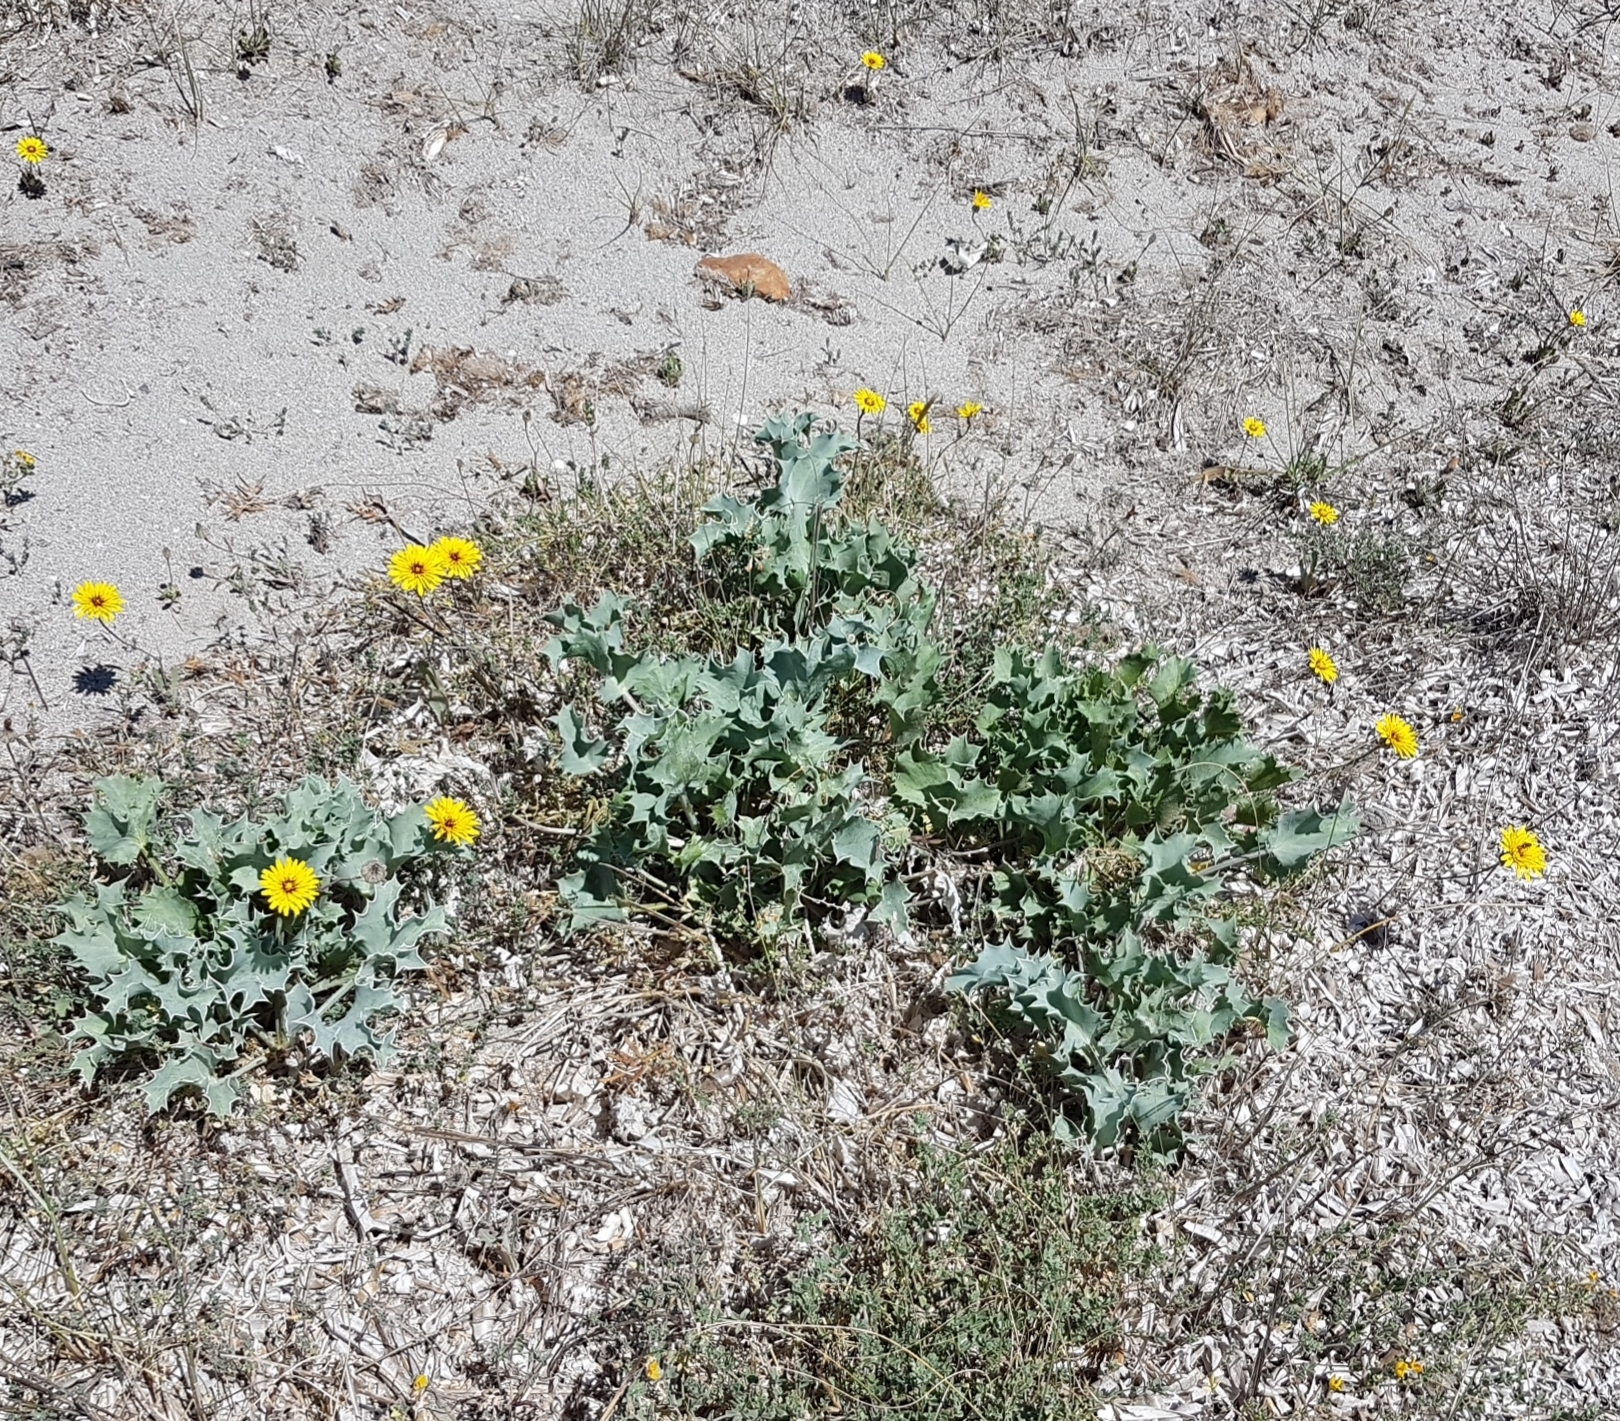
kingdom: Plantae
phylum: Tracheophyta
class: Magnoliopsida
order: Apiales
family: Apiaceae
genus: Eryngium
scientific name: Eryngium maritimum
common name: Sea-holly
